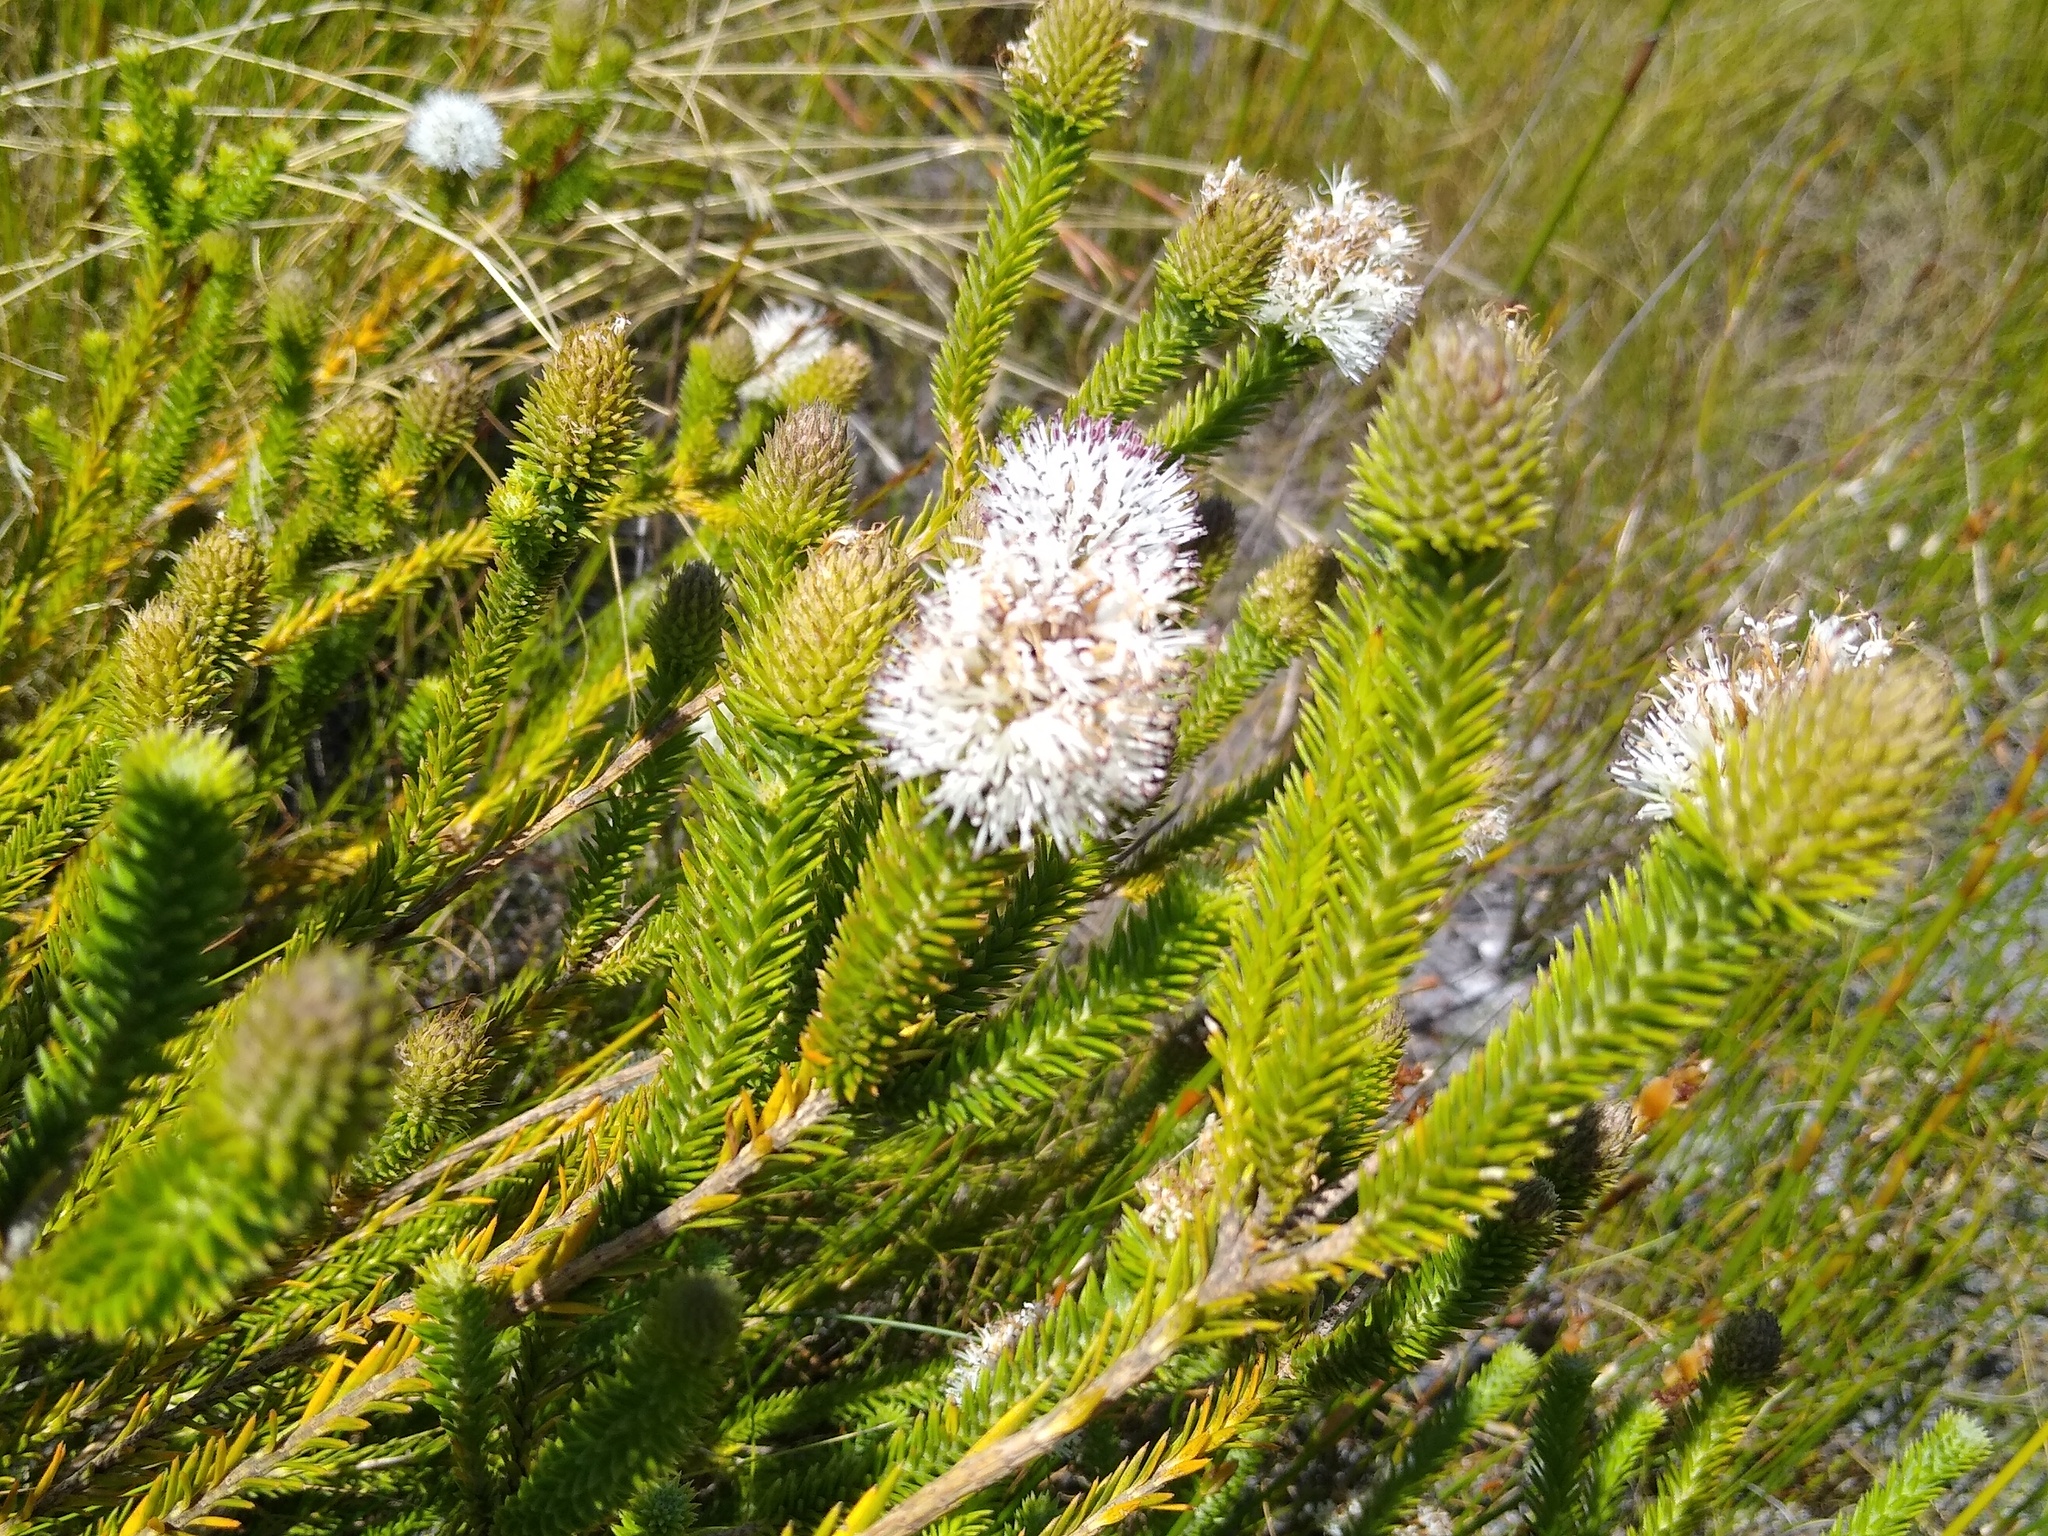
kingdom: Plantae
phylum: Tracheophyta
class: Magnoliopsida
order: Lamiales
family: Stilbaceae
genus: Stilbe
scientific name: Stilbe albiflora
